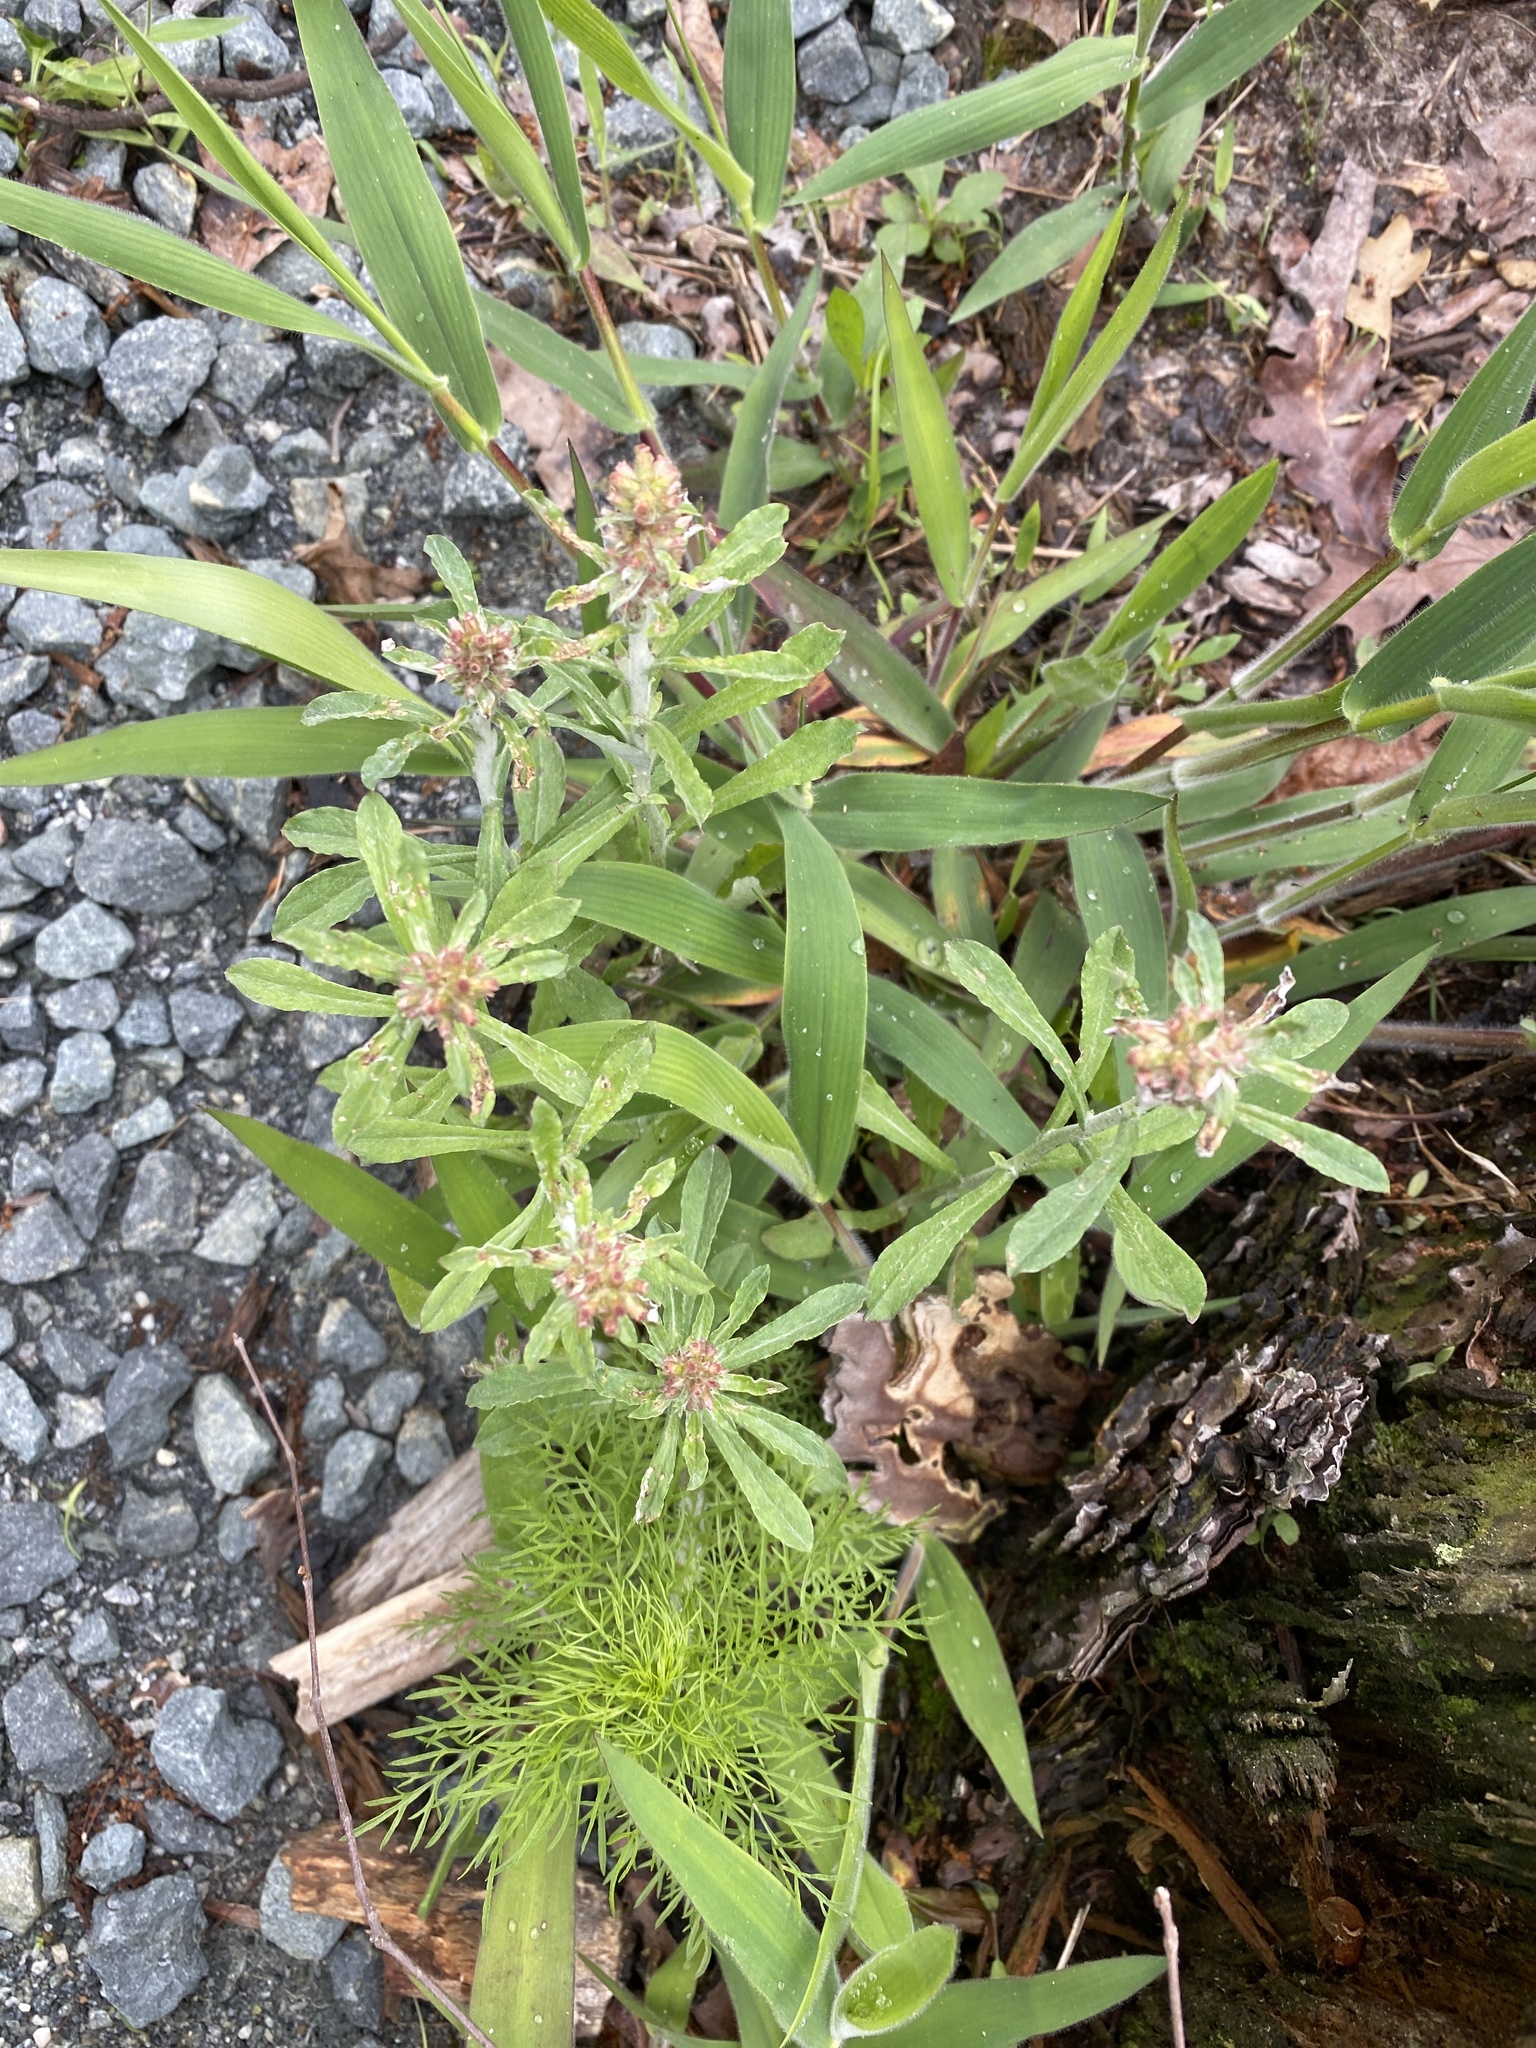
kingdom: Plantae
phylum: Tracheophyta
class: Magnoliopsida
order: Asterales
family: Asteraceae
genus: Gamochaeta
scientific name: Gamochaeta purpurea
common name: Purple cudweed
